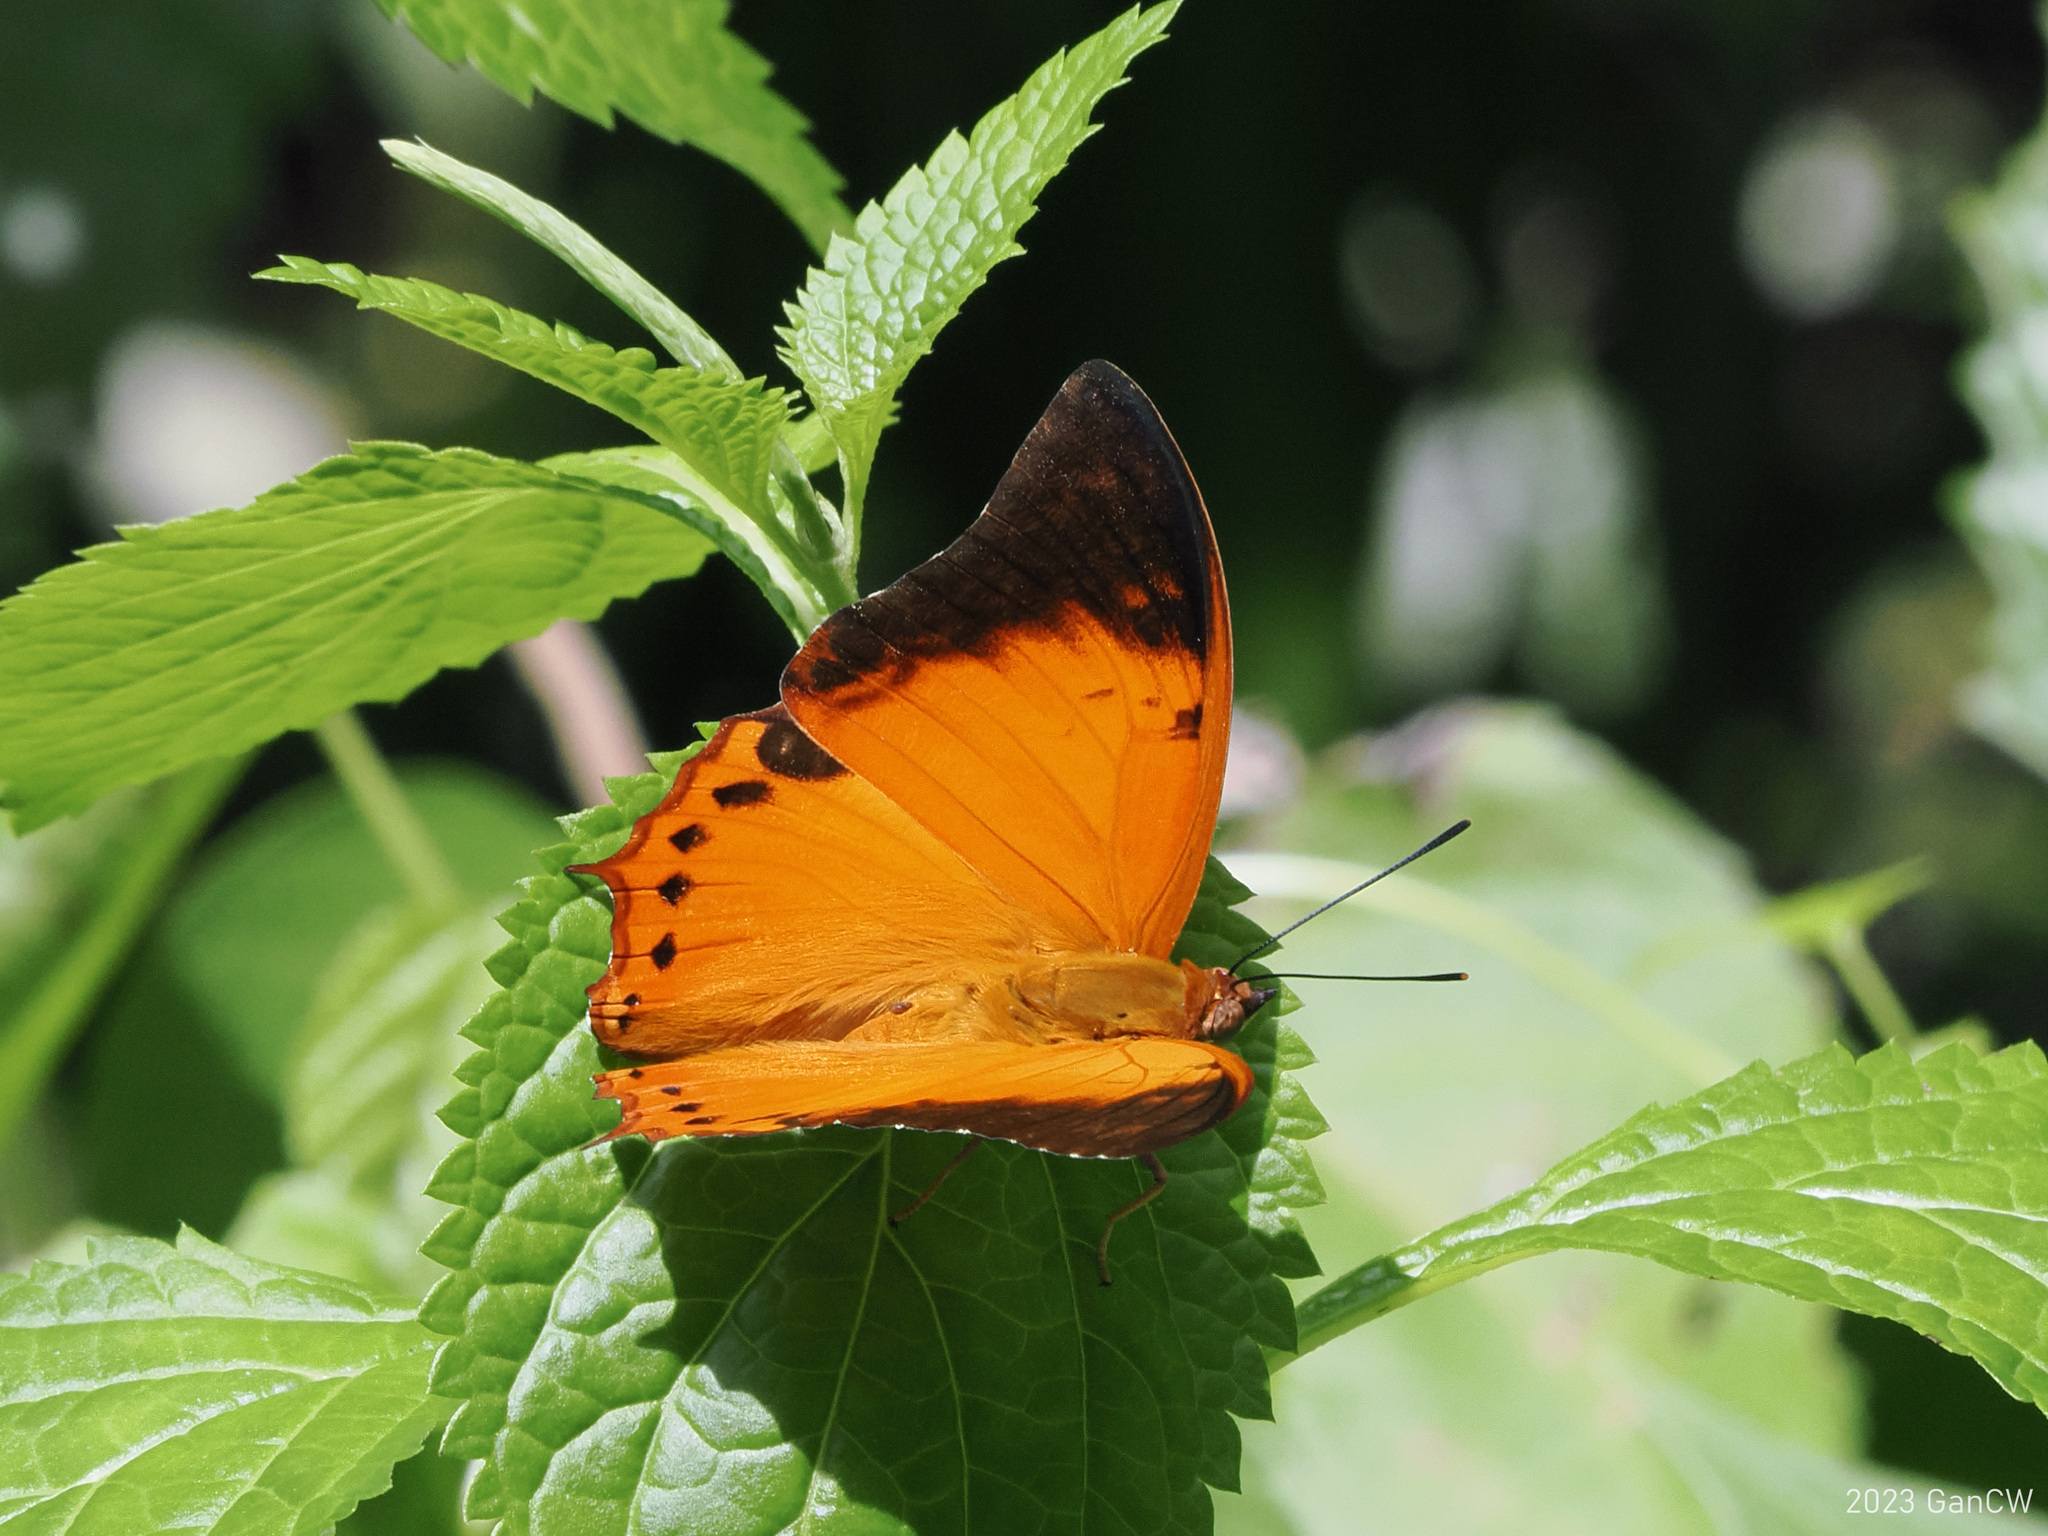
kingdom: Animalia
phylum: Arthropoda
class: Insecta
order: Lepidoptera
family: Nymphalidae
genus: Charaxes
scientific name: Charaxes affinis
